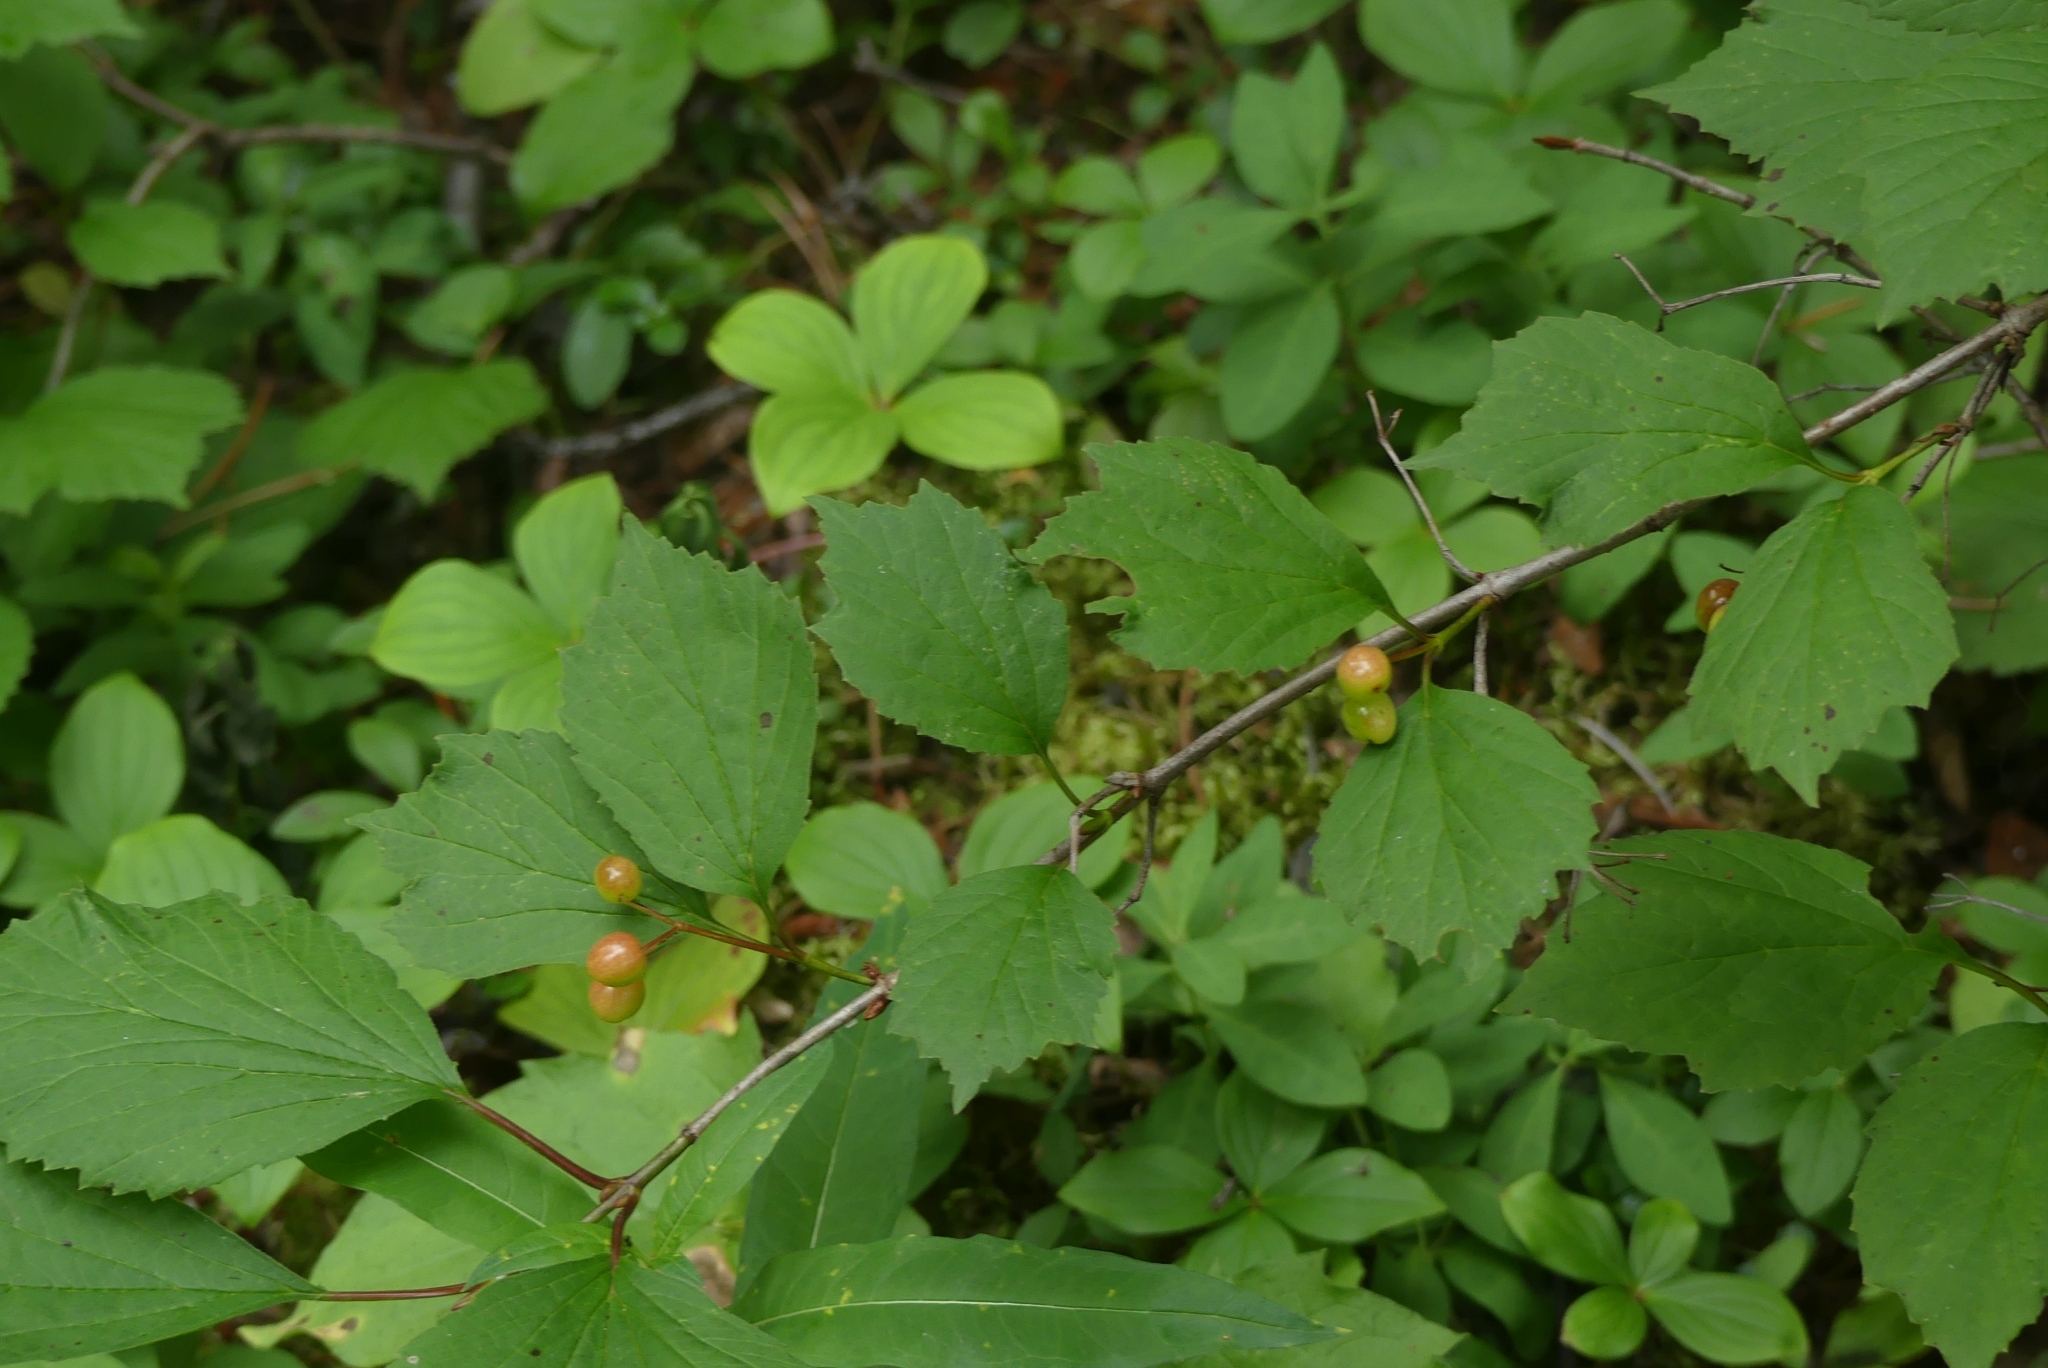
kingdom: Plantae
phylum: Tracheophyta
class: Magnoliopsida
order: Dipsacales
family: Viburnaceae
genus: Viburnum
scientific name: Viburnum edule
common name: Mooseberry
